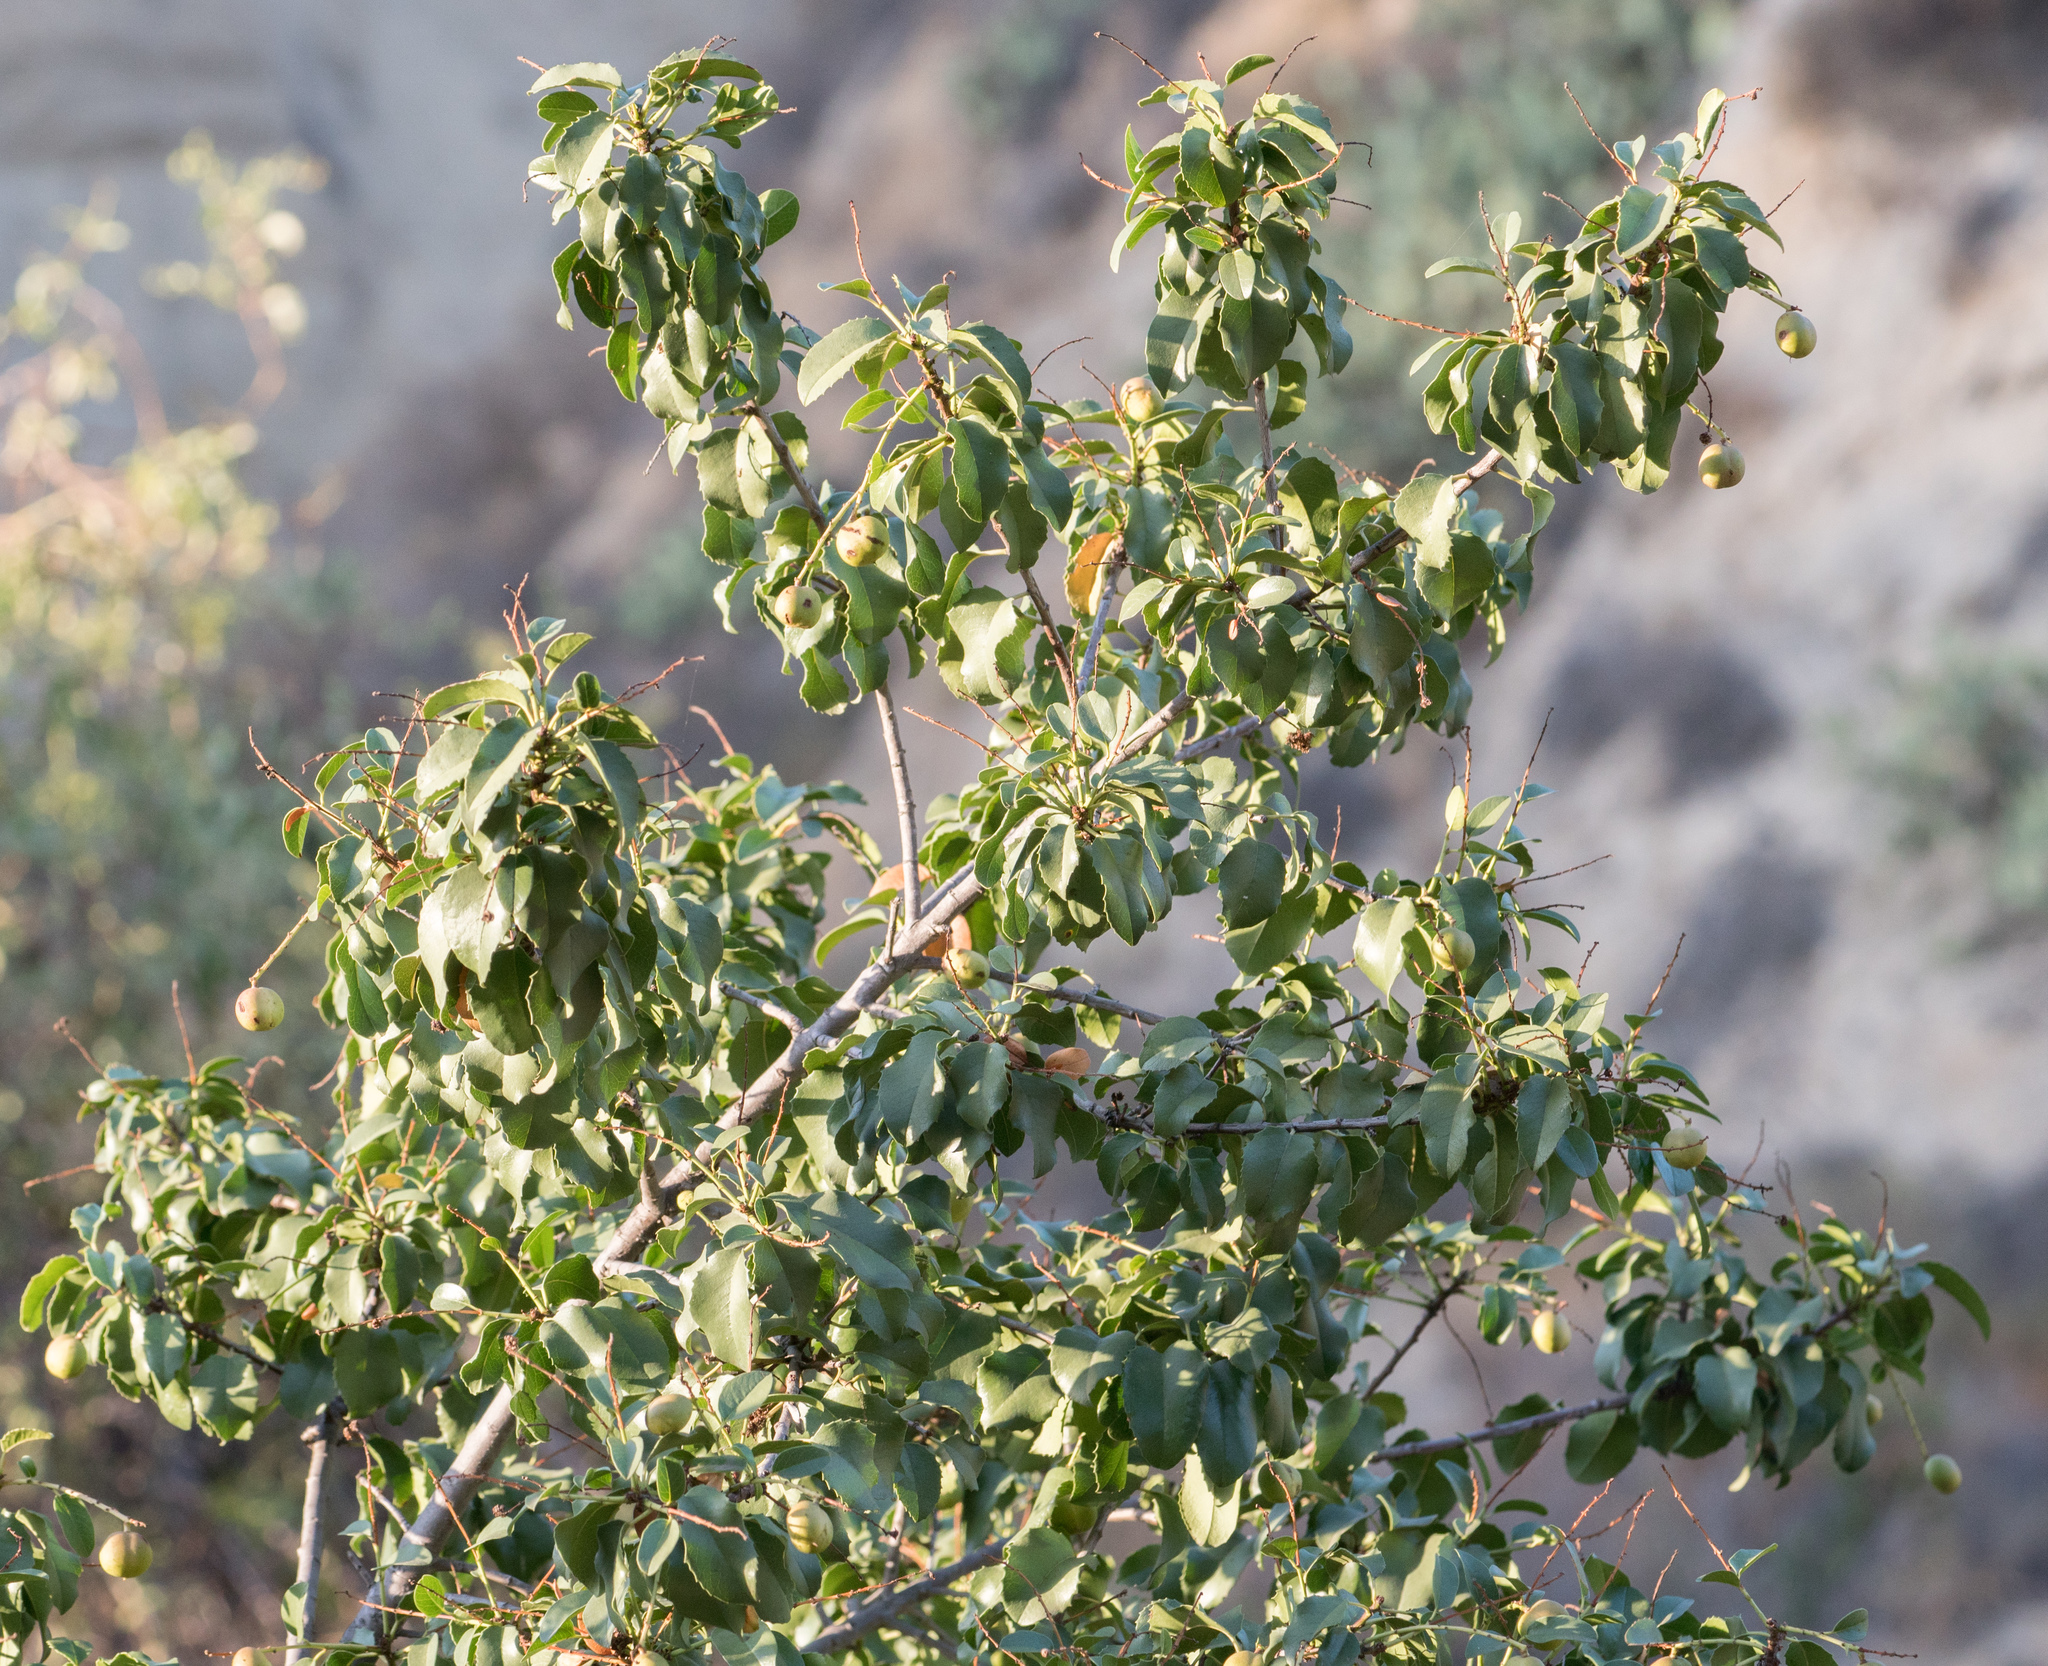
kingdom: Plantae
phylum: Tracheophyta
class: Magnoliopsida
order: Rosales
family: Rosaceae
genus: Prunus
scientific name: Prunus ilicifolia
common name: Hollyleaf cherry
